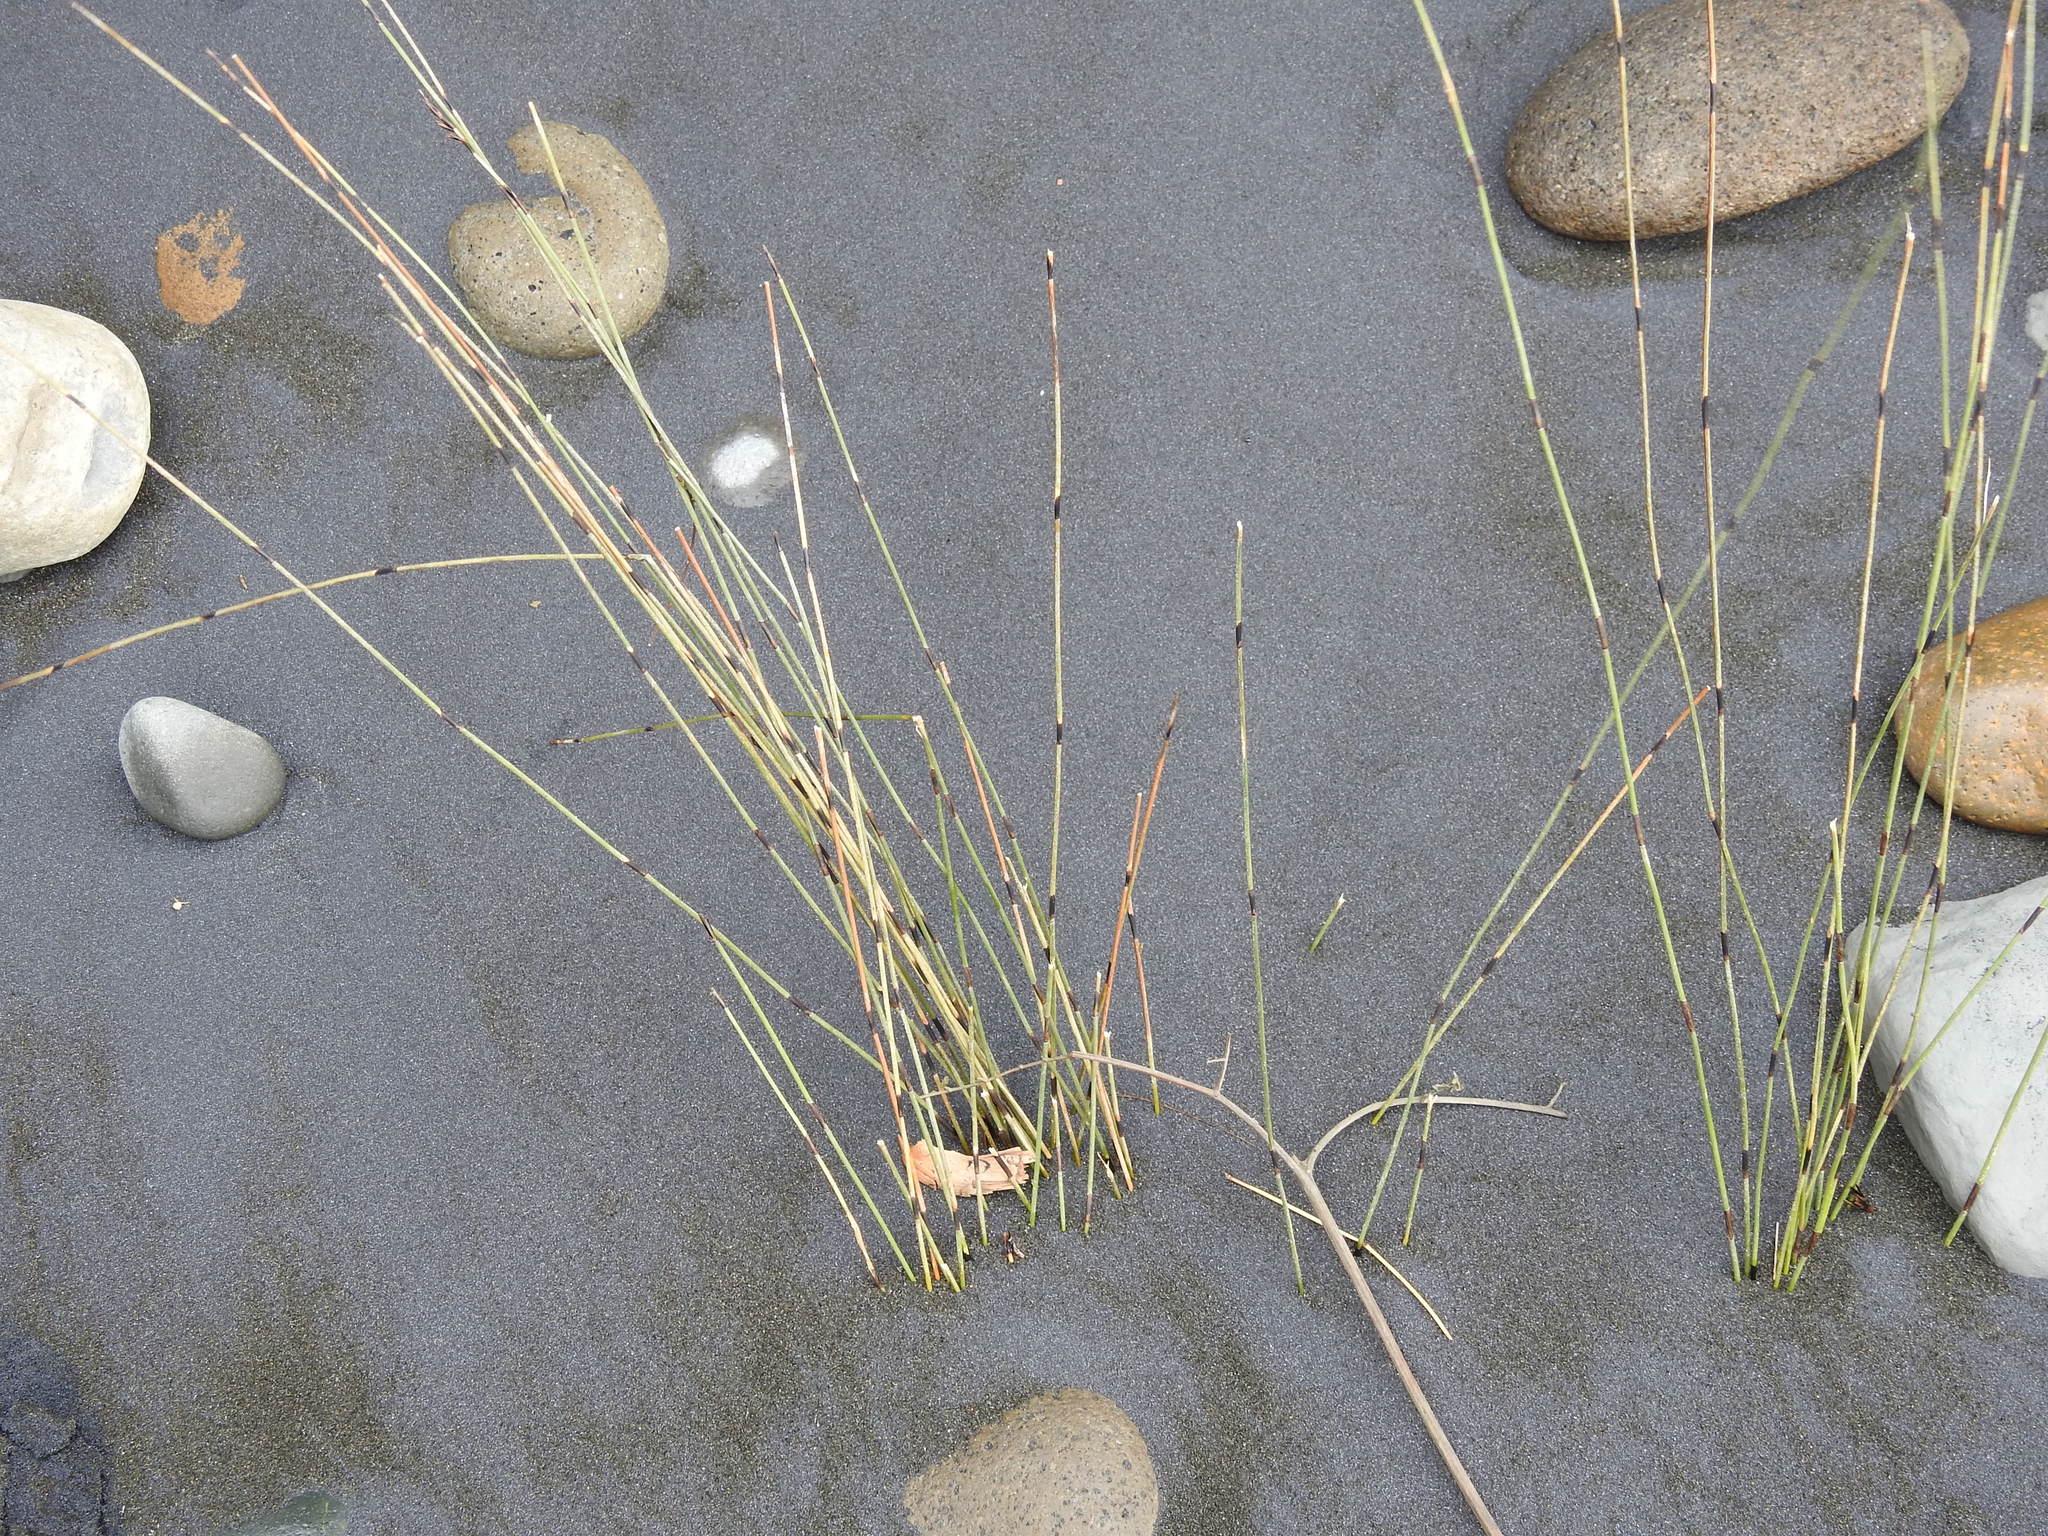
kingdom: Plantae
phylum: Tracheophyta
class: Liliopsida
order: Poales
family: Restionaceae
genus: Apodasmia
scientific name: Apodasmia similis
